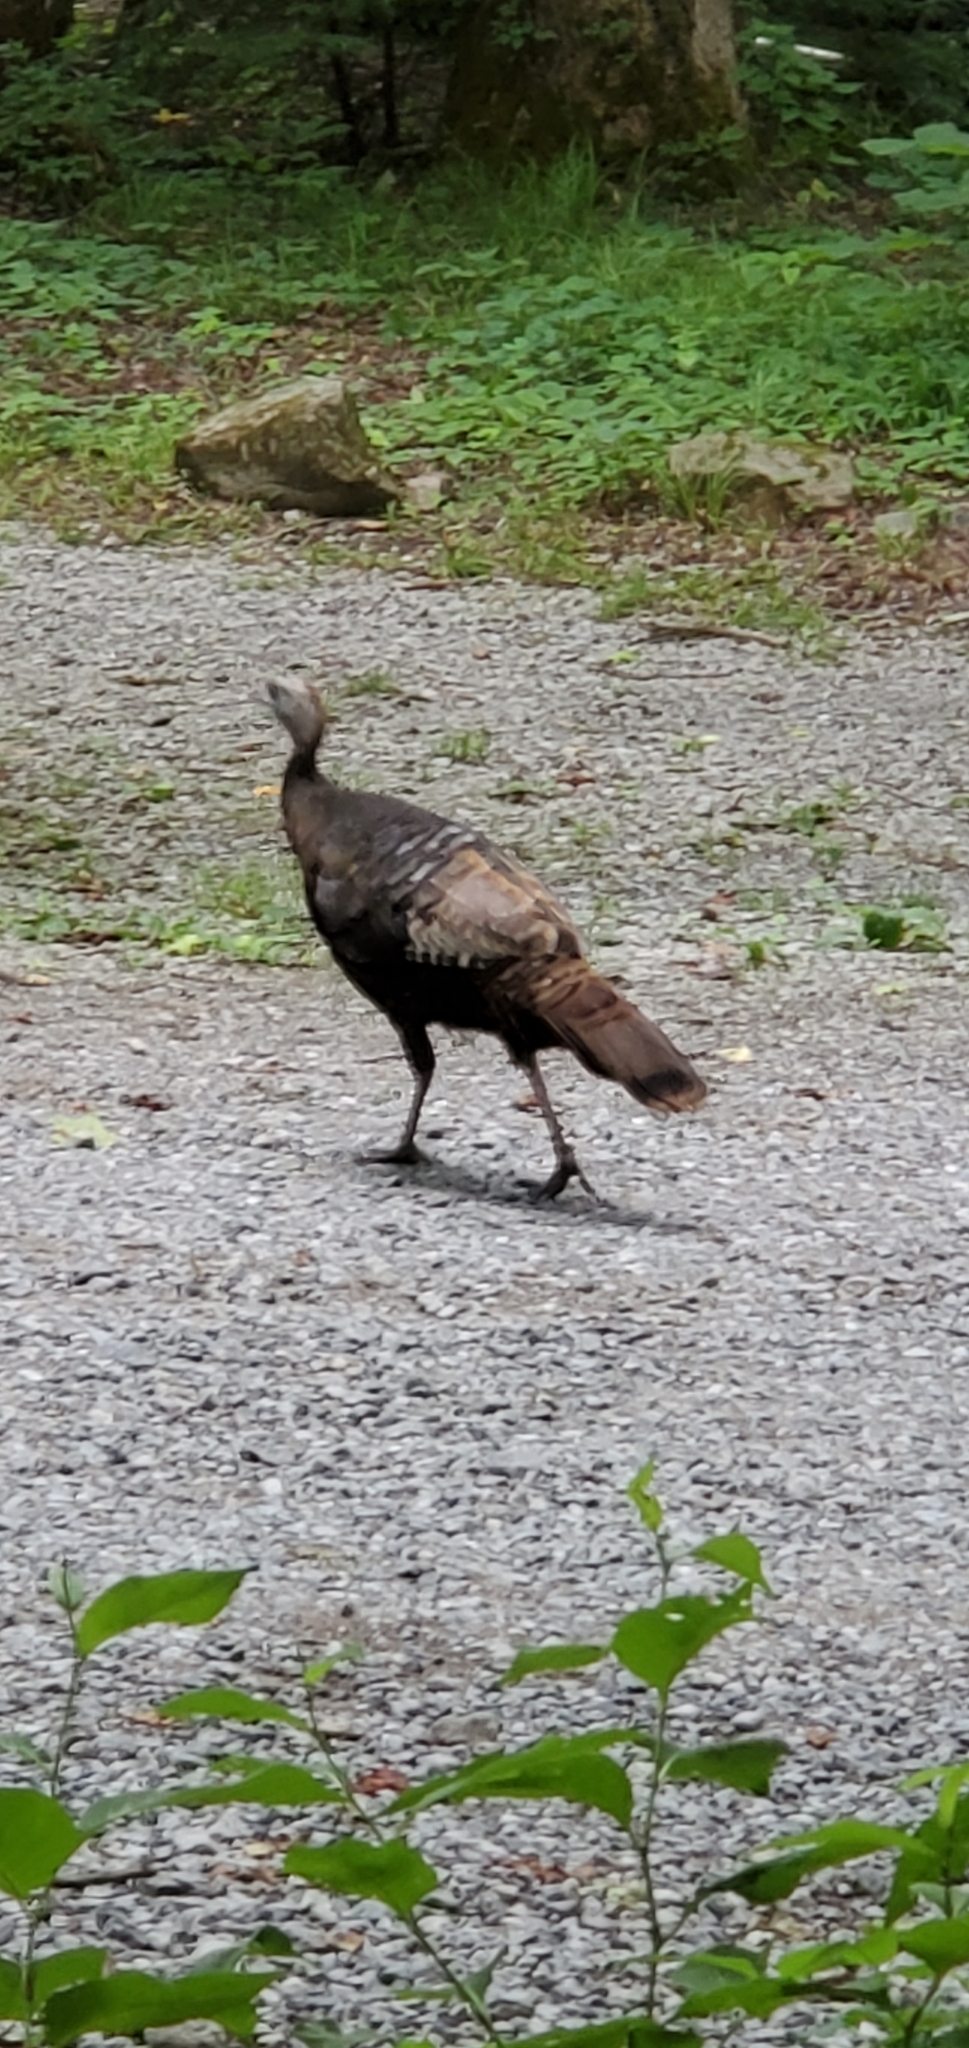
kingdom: Animalia
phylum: Chordata
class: Aves
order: Galliformes
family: Phasianidae
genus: Meleagris
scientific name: Meleagris gallopavo
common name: Wild turkey
